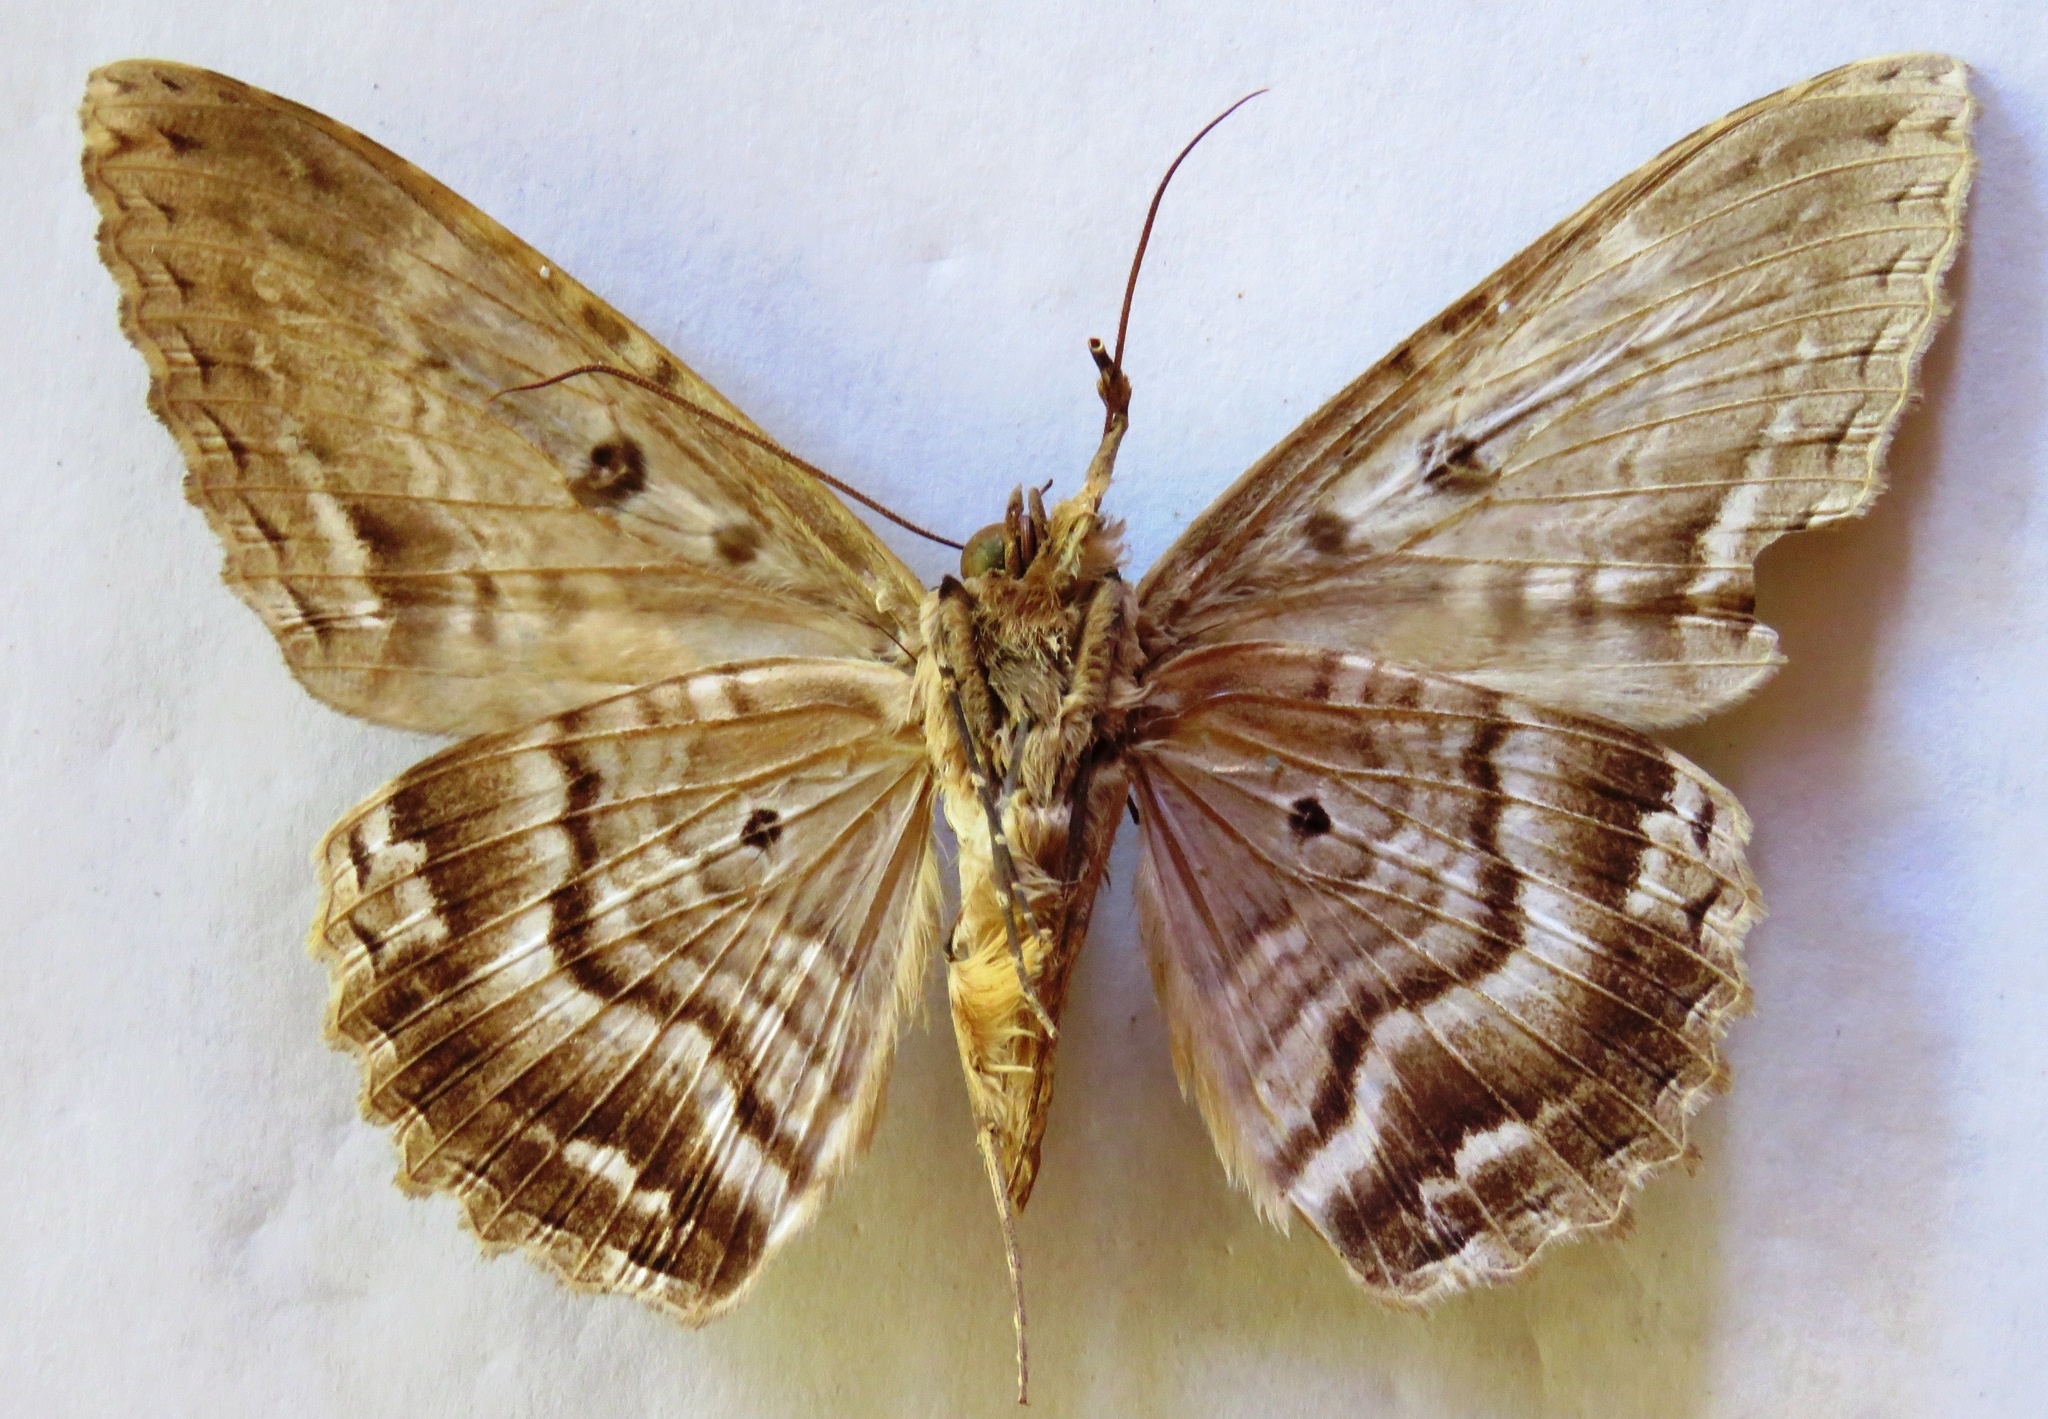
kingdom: Animalia
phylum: Arthropoda
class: Insecta
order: Lepidoptera
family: Erebidae
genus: Feigeria
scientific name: Feigeria buteo
